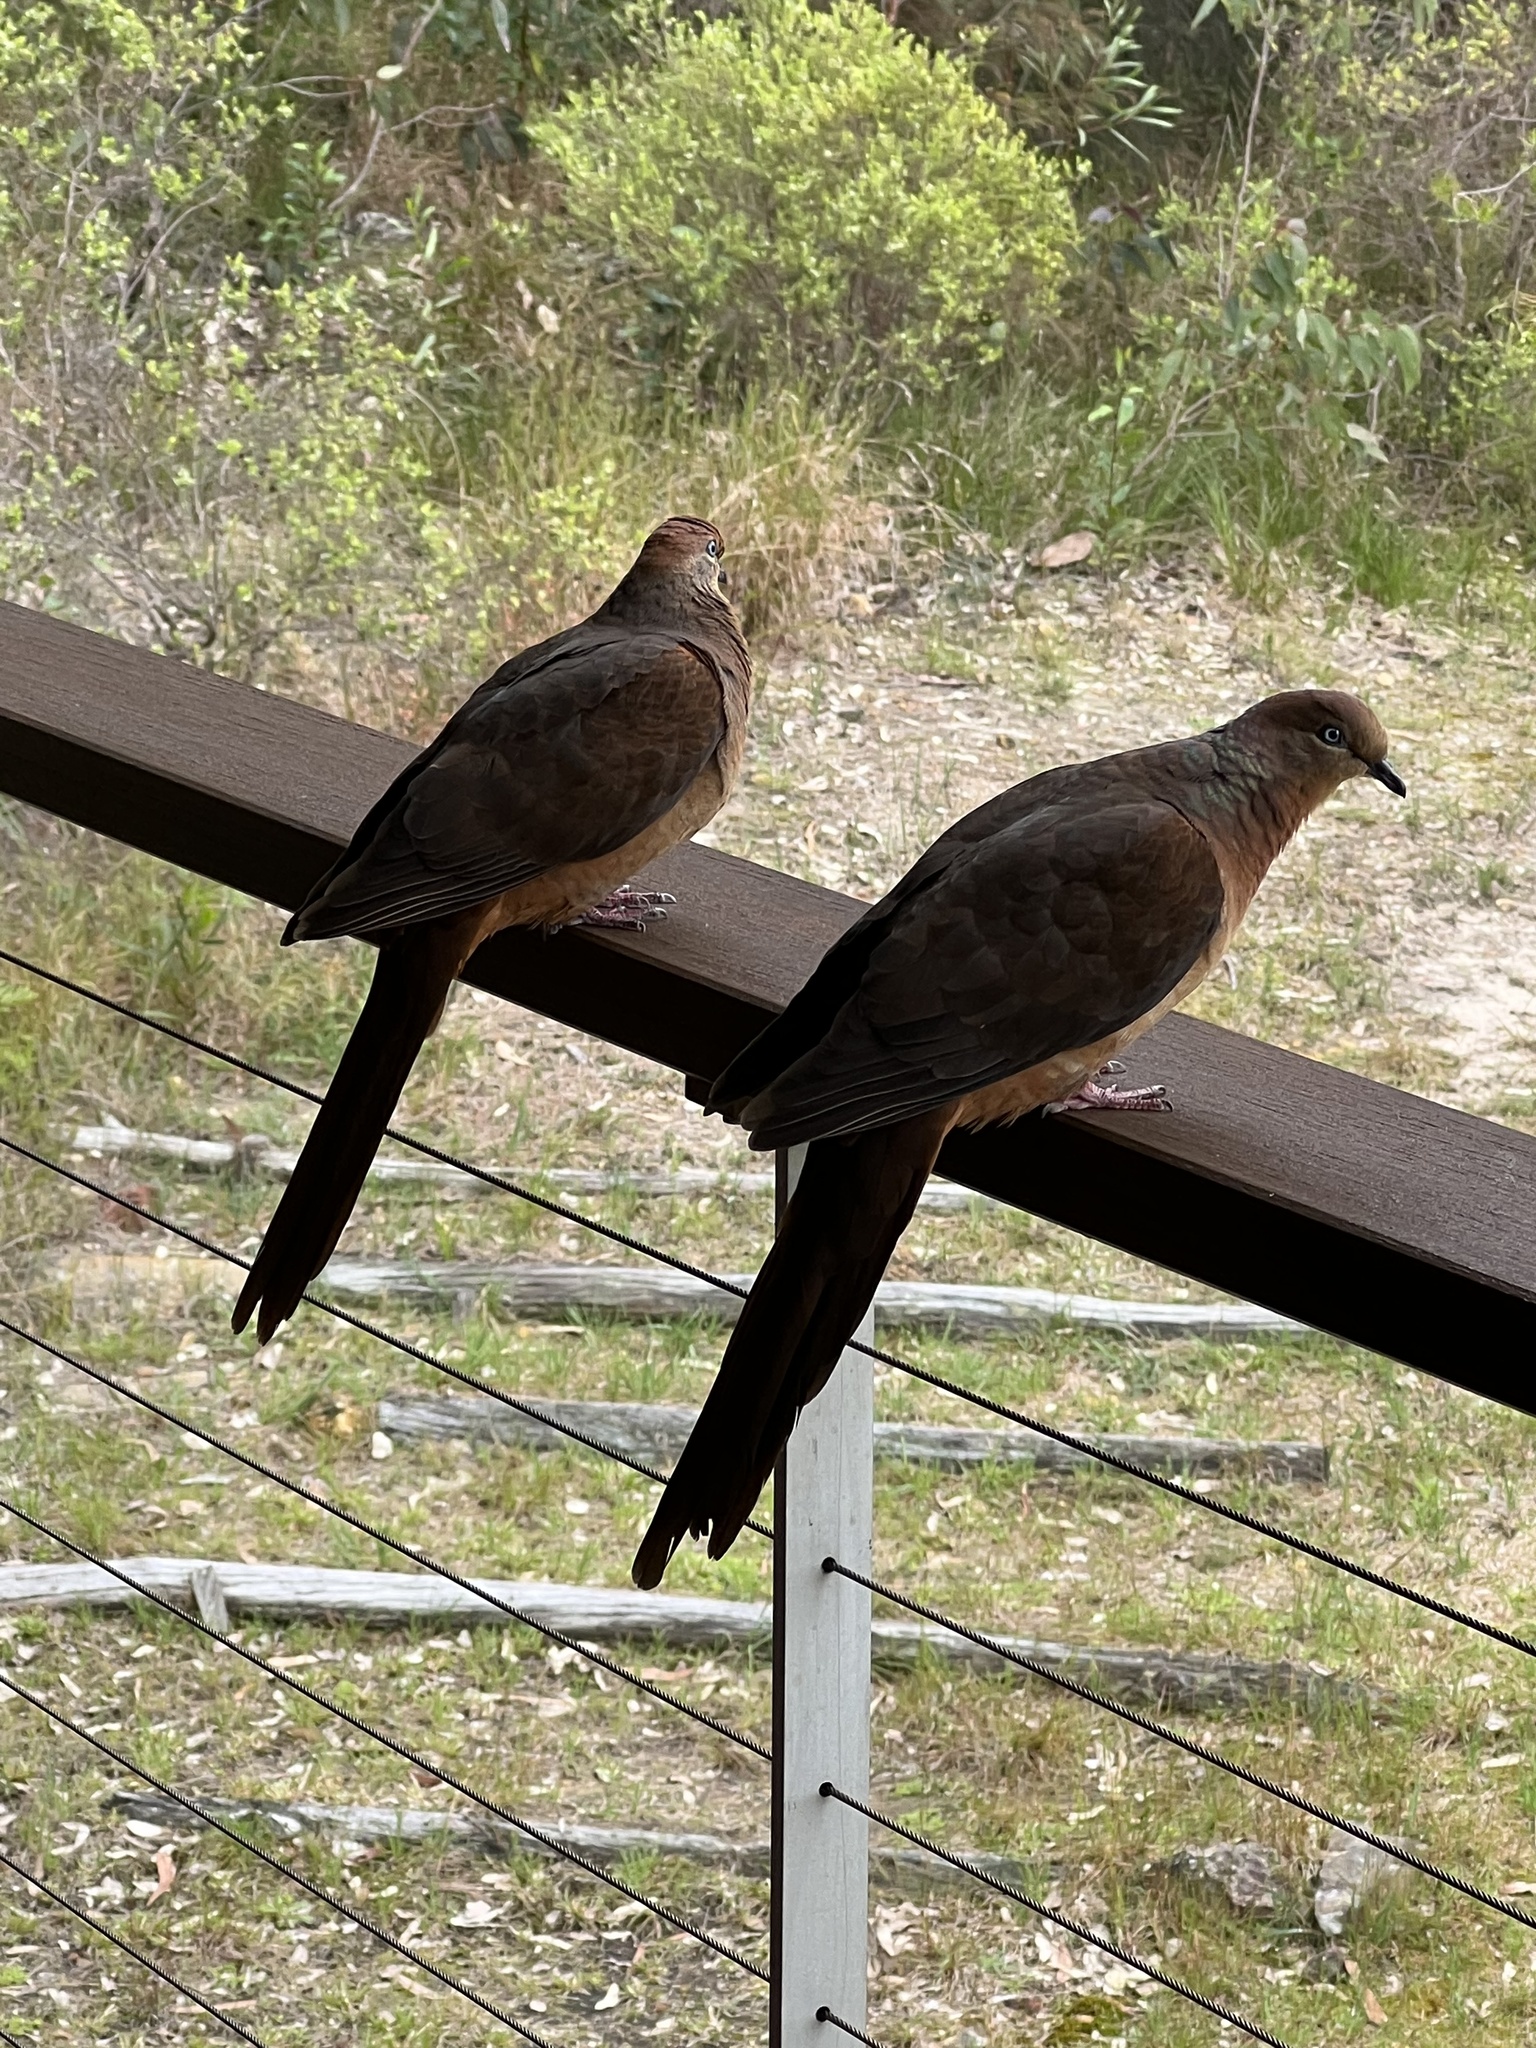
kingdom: Animalia
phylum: Chordata
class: Aves
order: Columbiformes
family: Columbidae
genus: Macropygia
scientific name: Macropygia phasianella
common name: Brown cuckoo-dove
